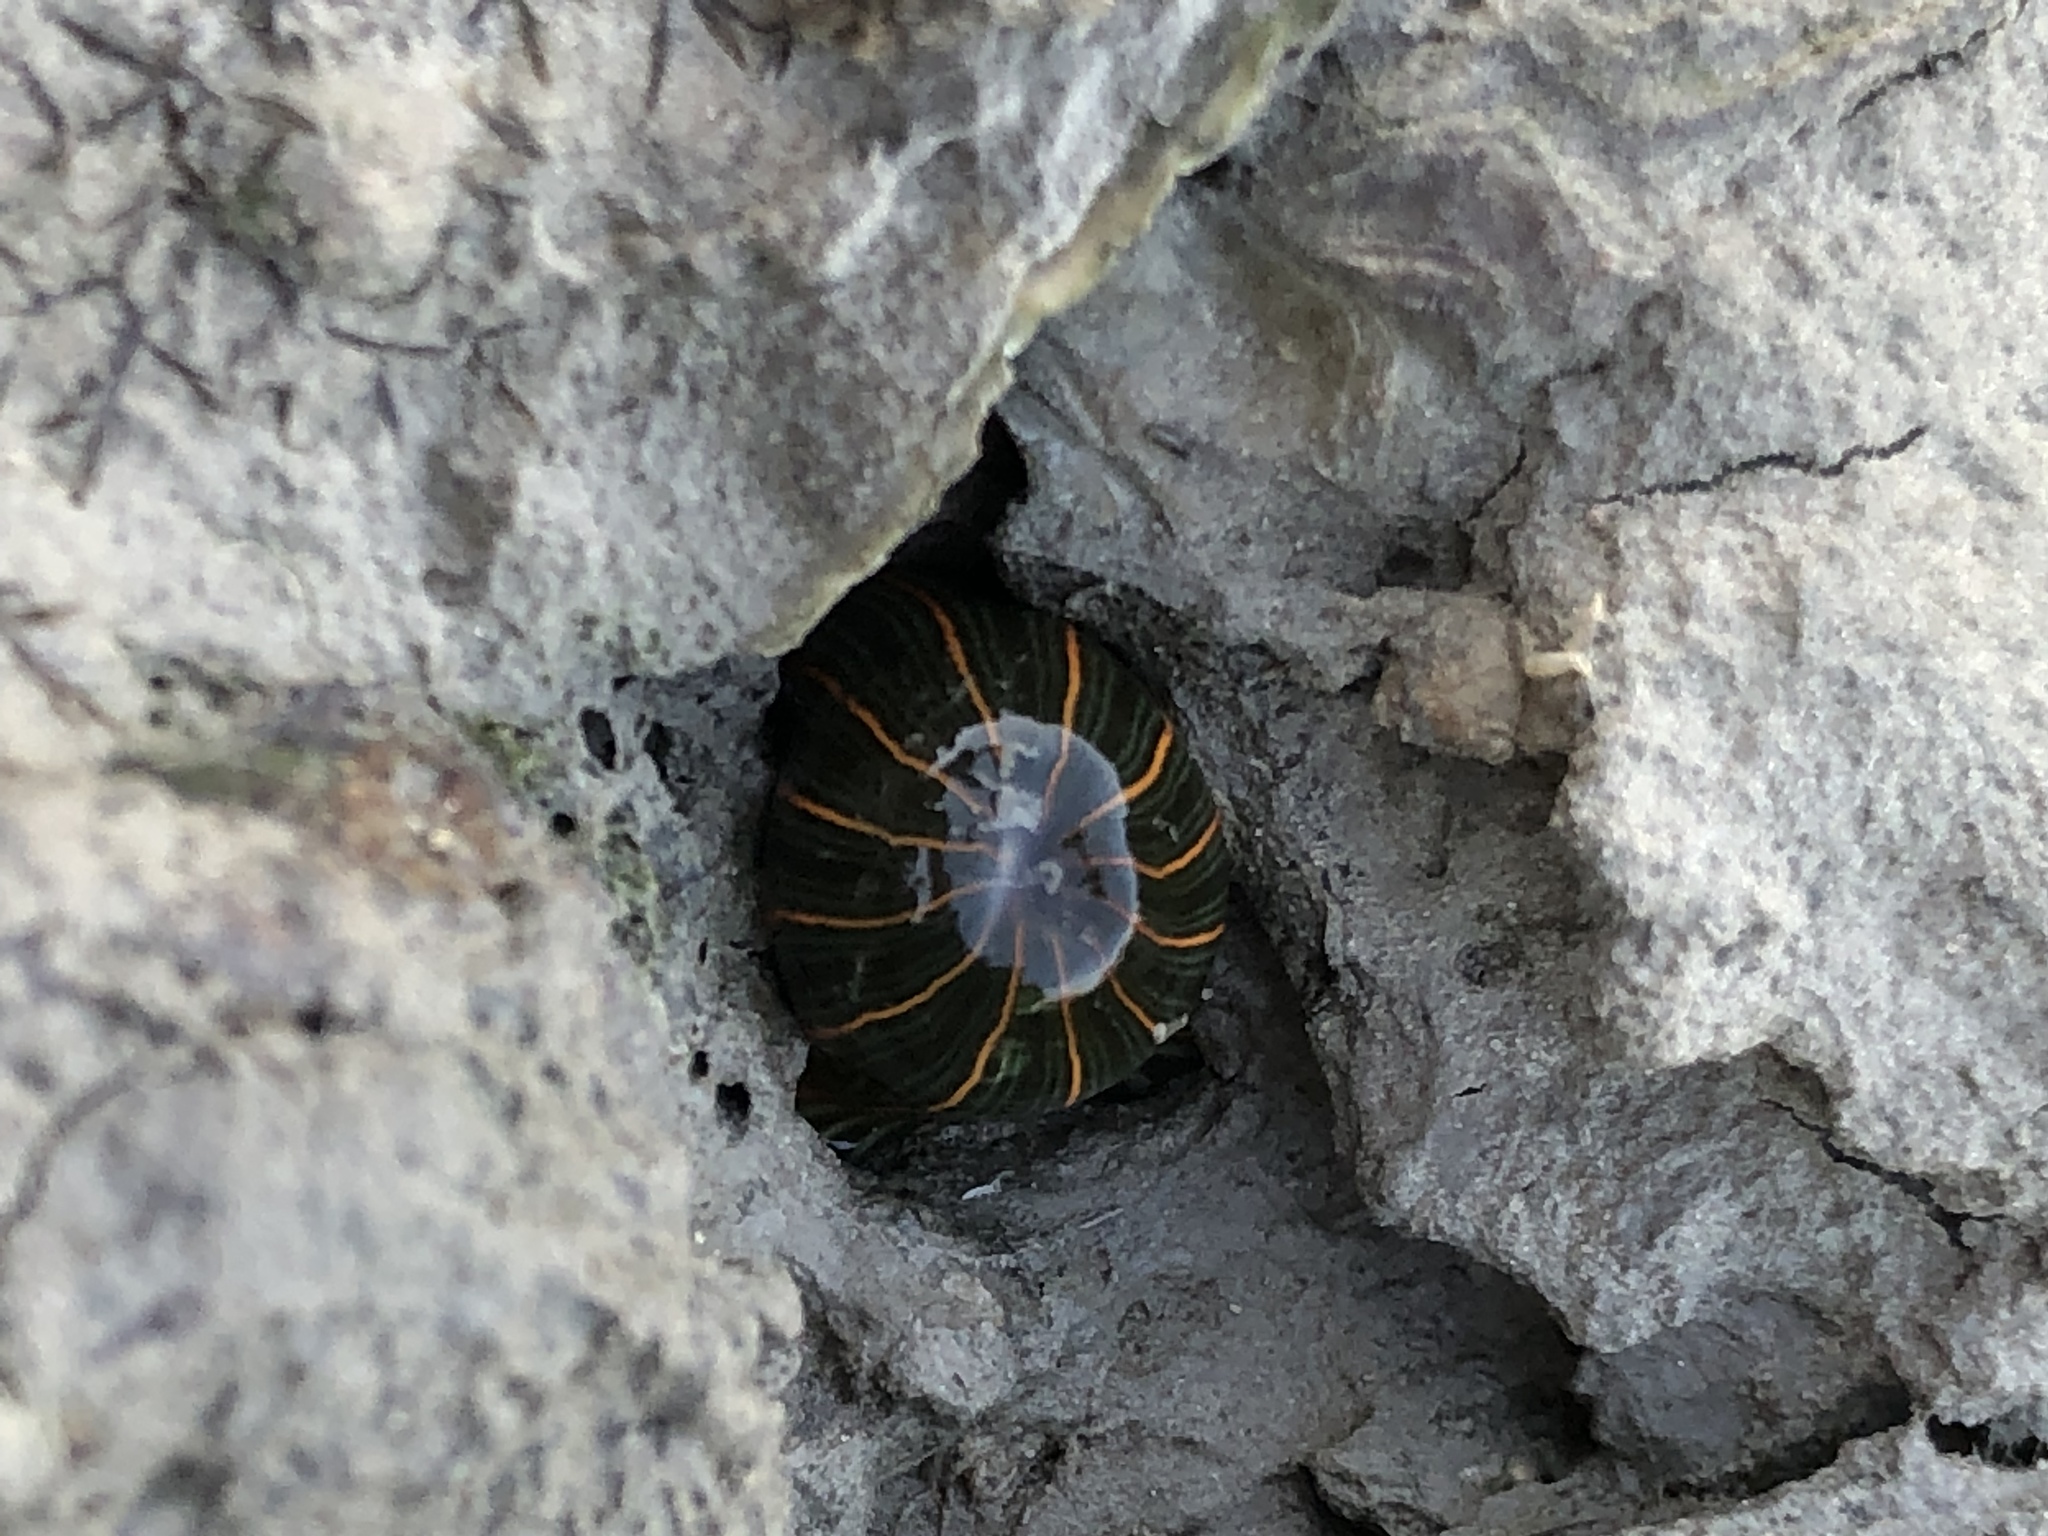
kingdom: Animalia
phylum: Cnidaria
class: Anthozoa
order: Actiniaria
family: Diadumenidae
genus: Diadumene
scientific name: Diadumene lineata
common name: Orange-striped anemone
